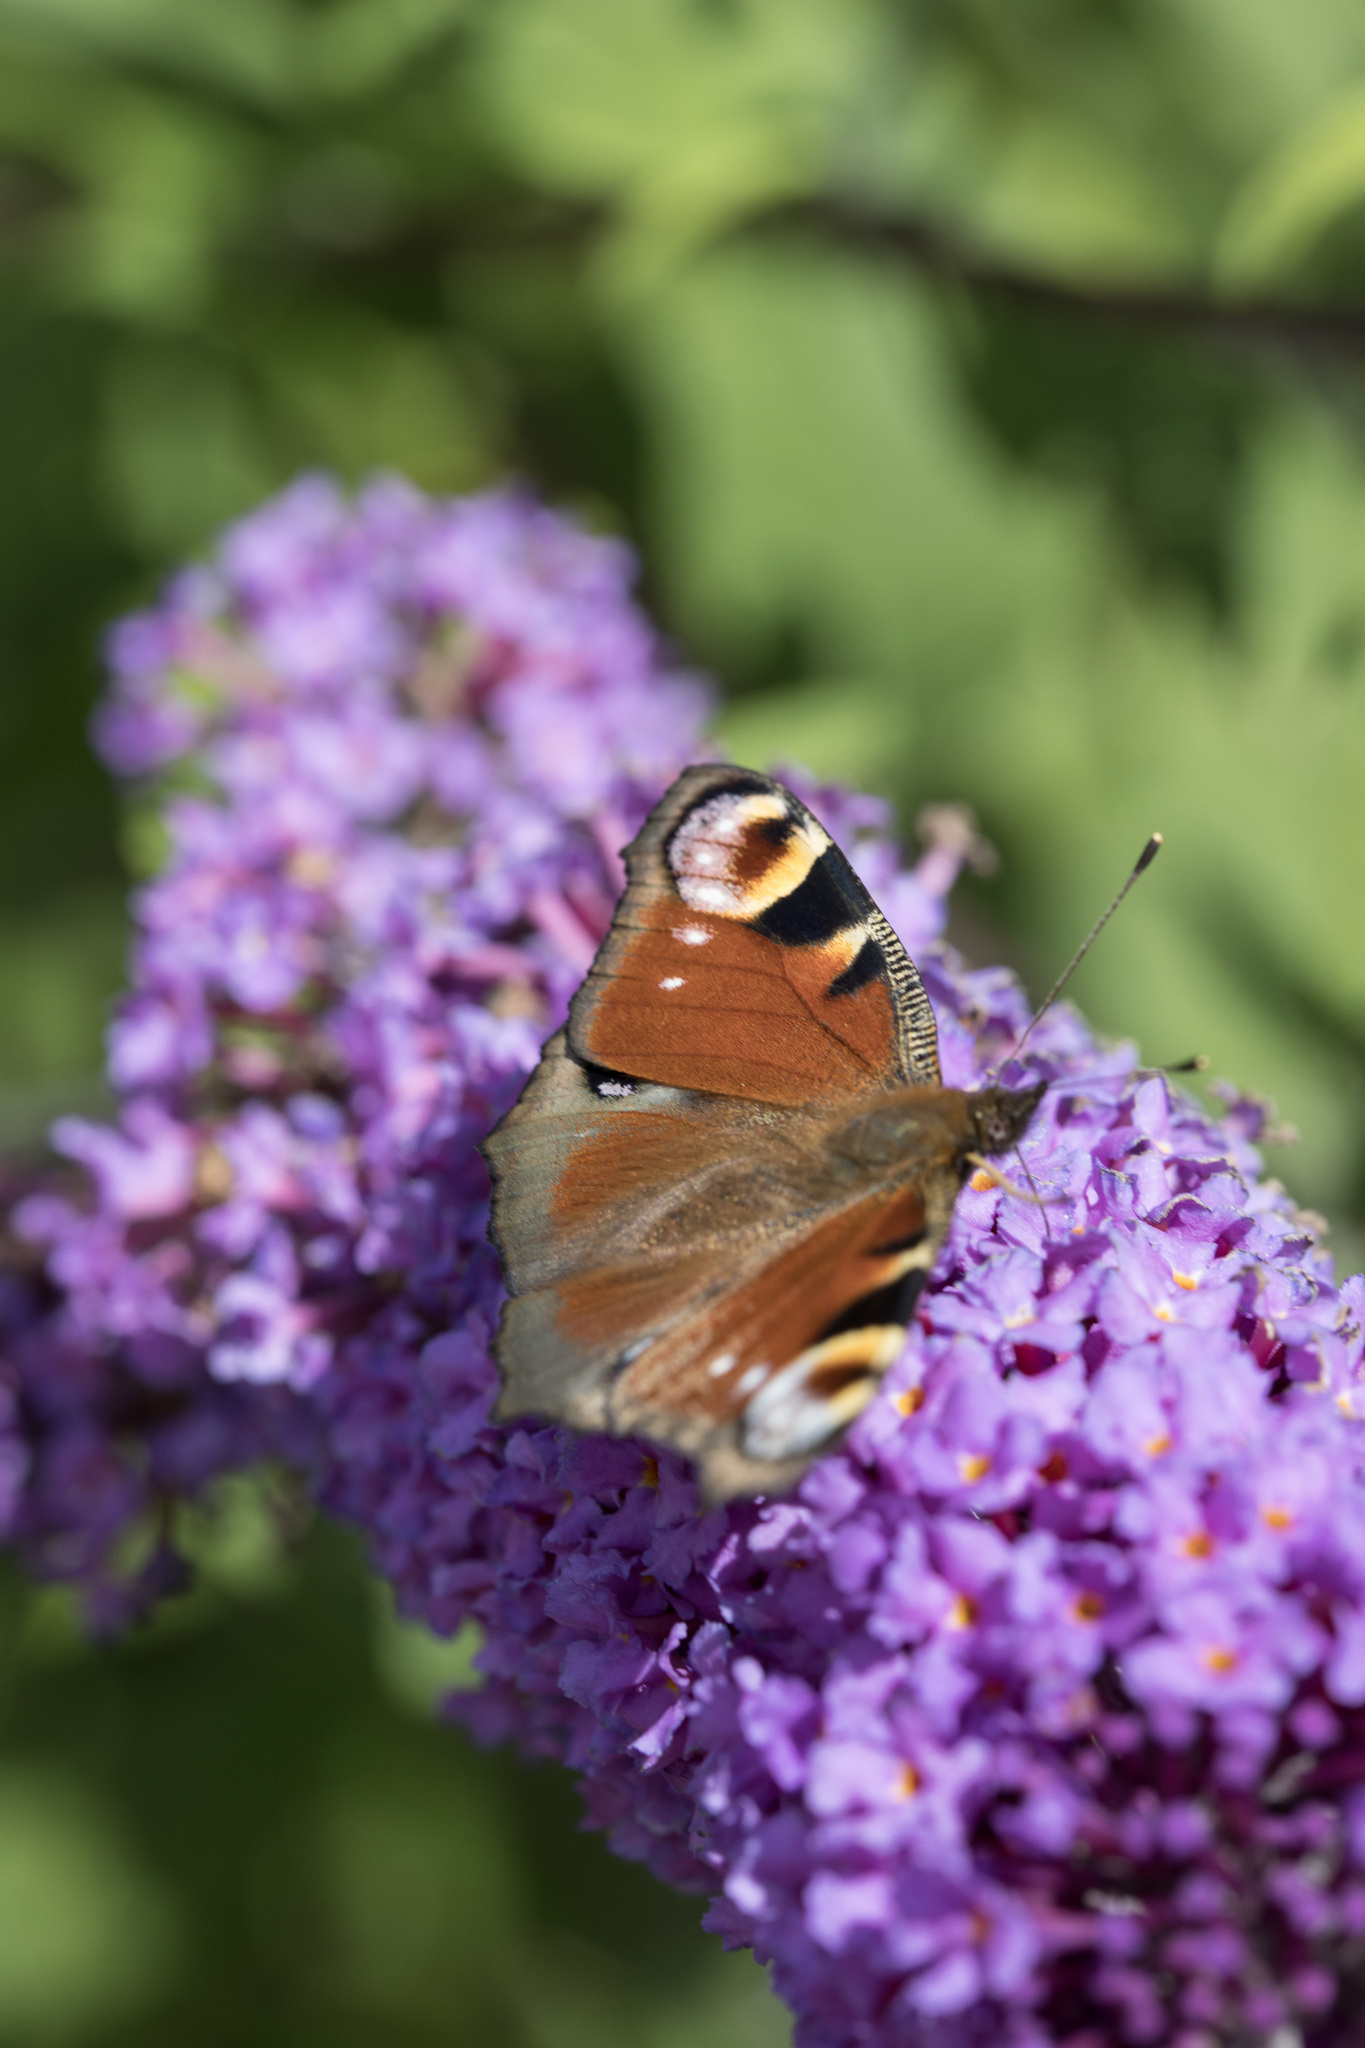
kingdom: Animalia
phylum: Arthropoda
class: Insecta
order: Lepidoptera
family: Nymphalidae
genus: Aglais
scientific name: Aglais io
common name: Peacock
